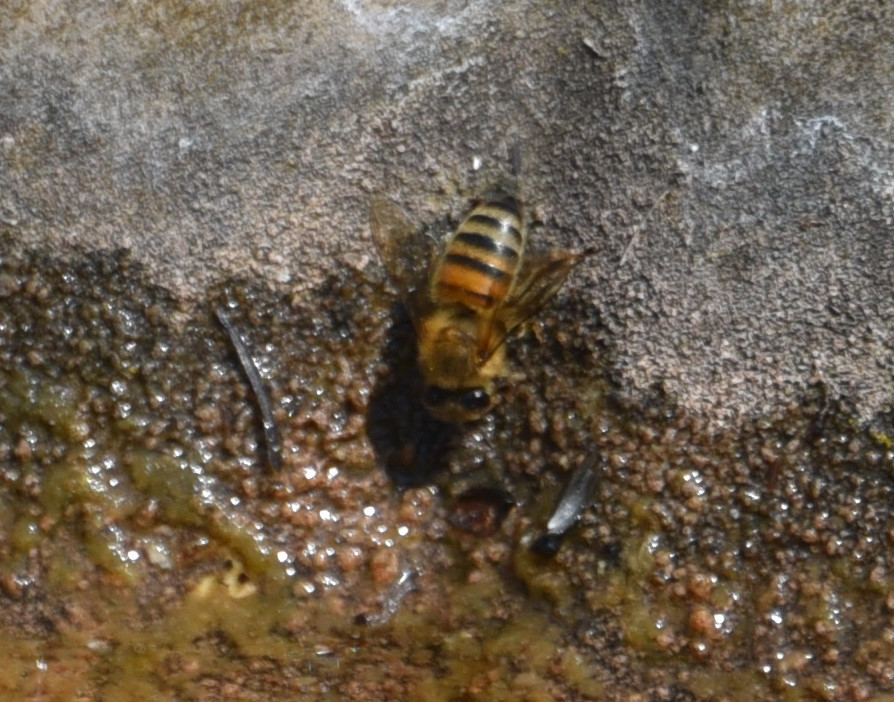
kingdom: Animalia
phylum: Arthropoda
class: Insecta
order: Hymenoptera
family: Apidae
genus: Apis
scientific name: Apis mellifera
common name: Honey bee
